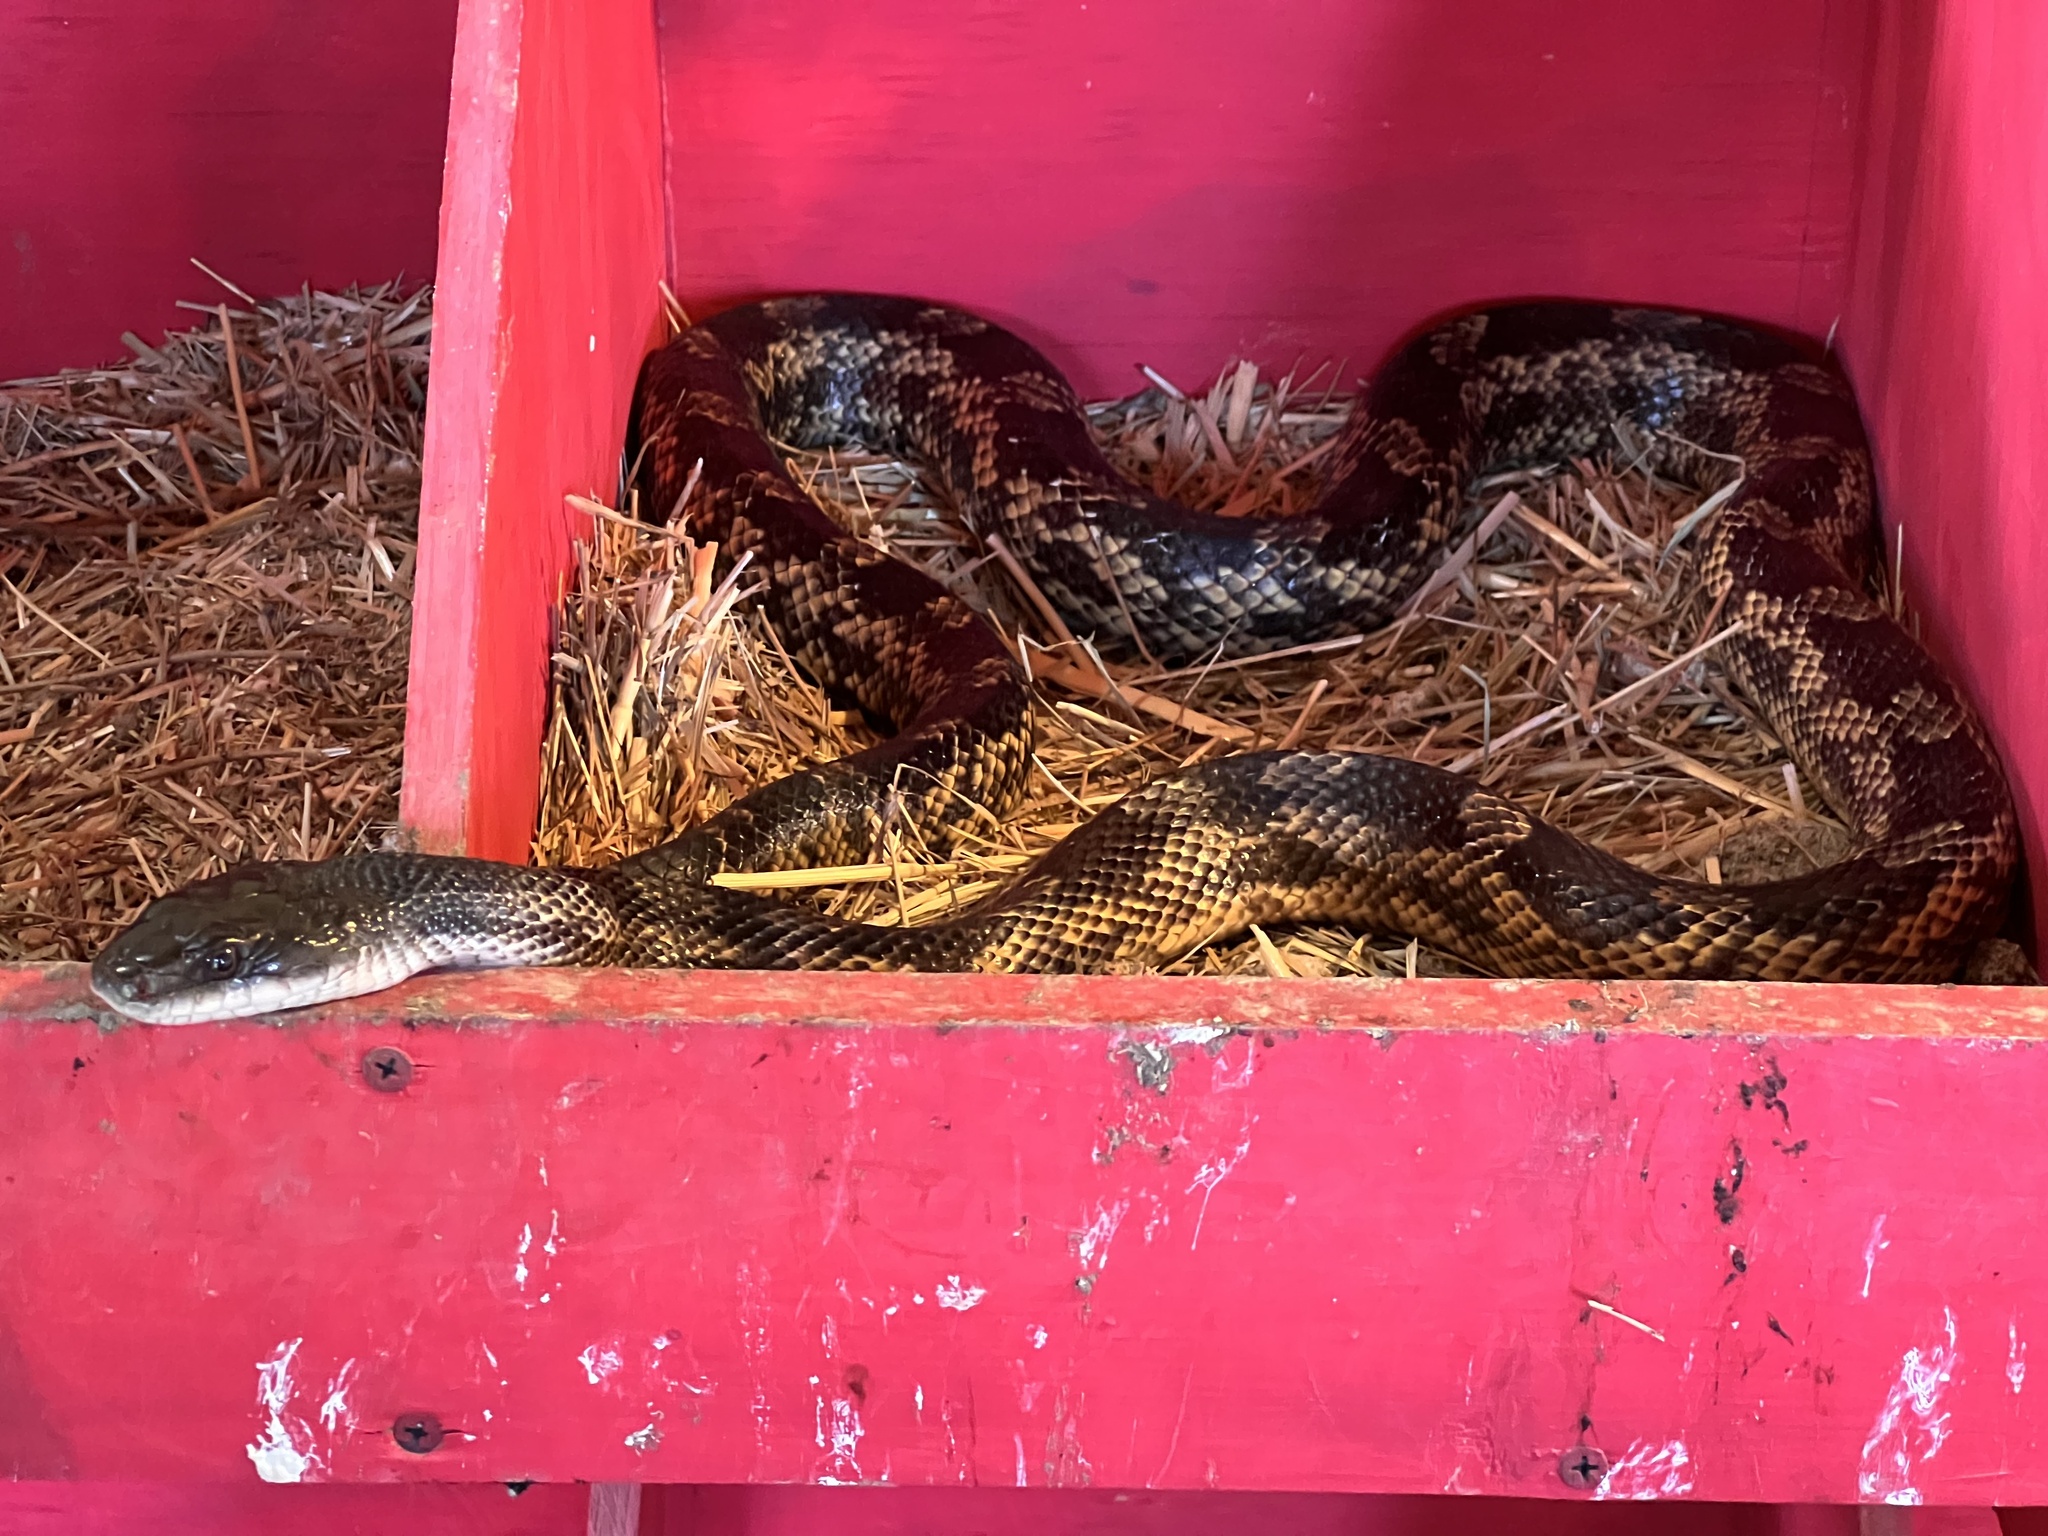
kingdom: Animalia
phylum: Chordata
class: Squamata
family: Colubridae
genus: Pantherophis
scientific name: Pantherophis obsoletus
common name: Black rat snake
